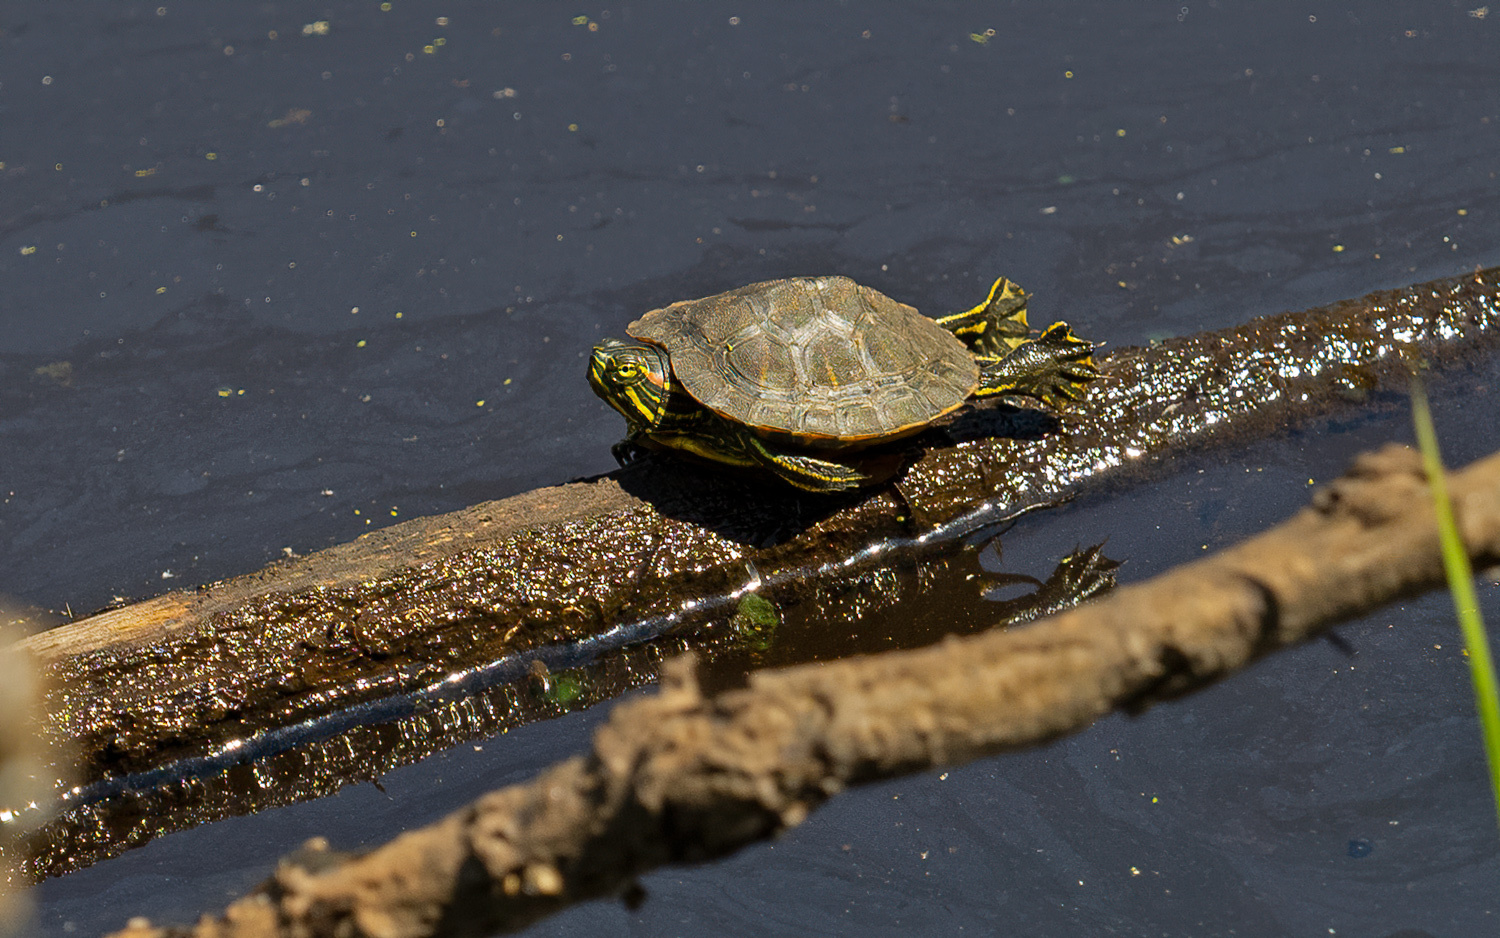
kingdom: Animalia
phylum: Chordata
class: Testudines
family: Emydidae
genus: Trachemys
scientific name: Trachemys scripta
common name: Slider
